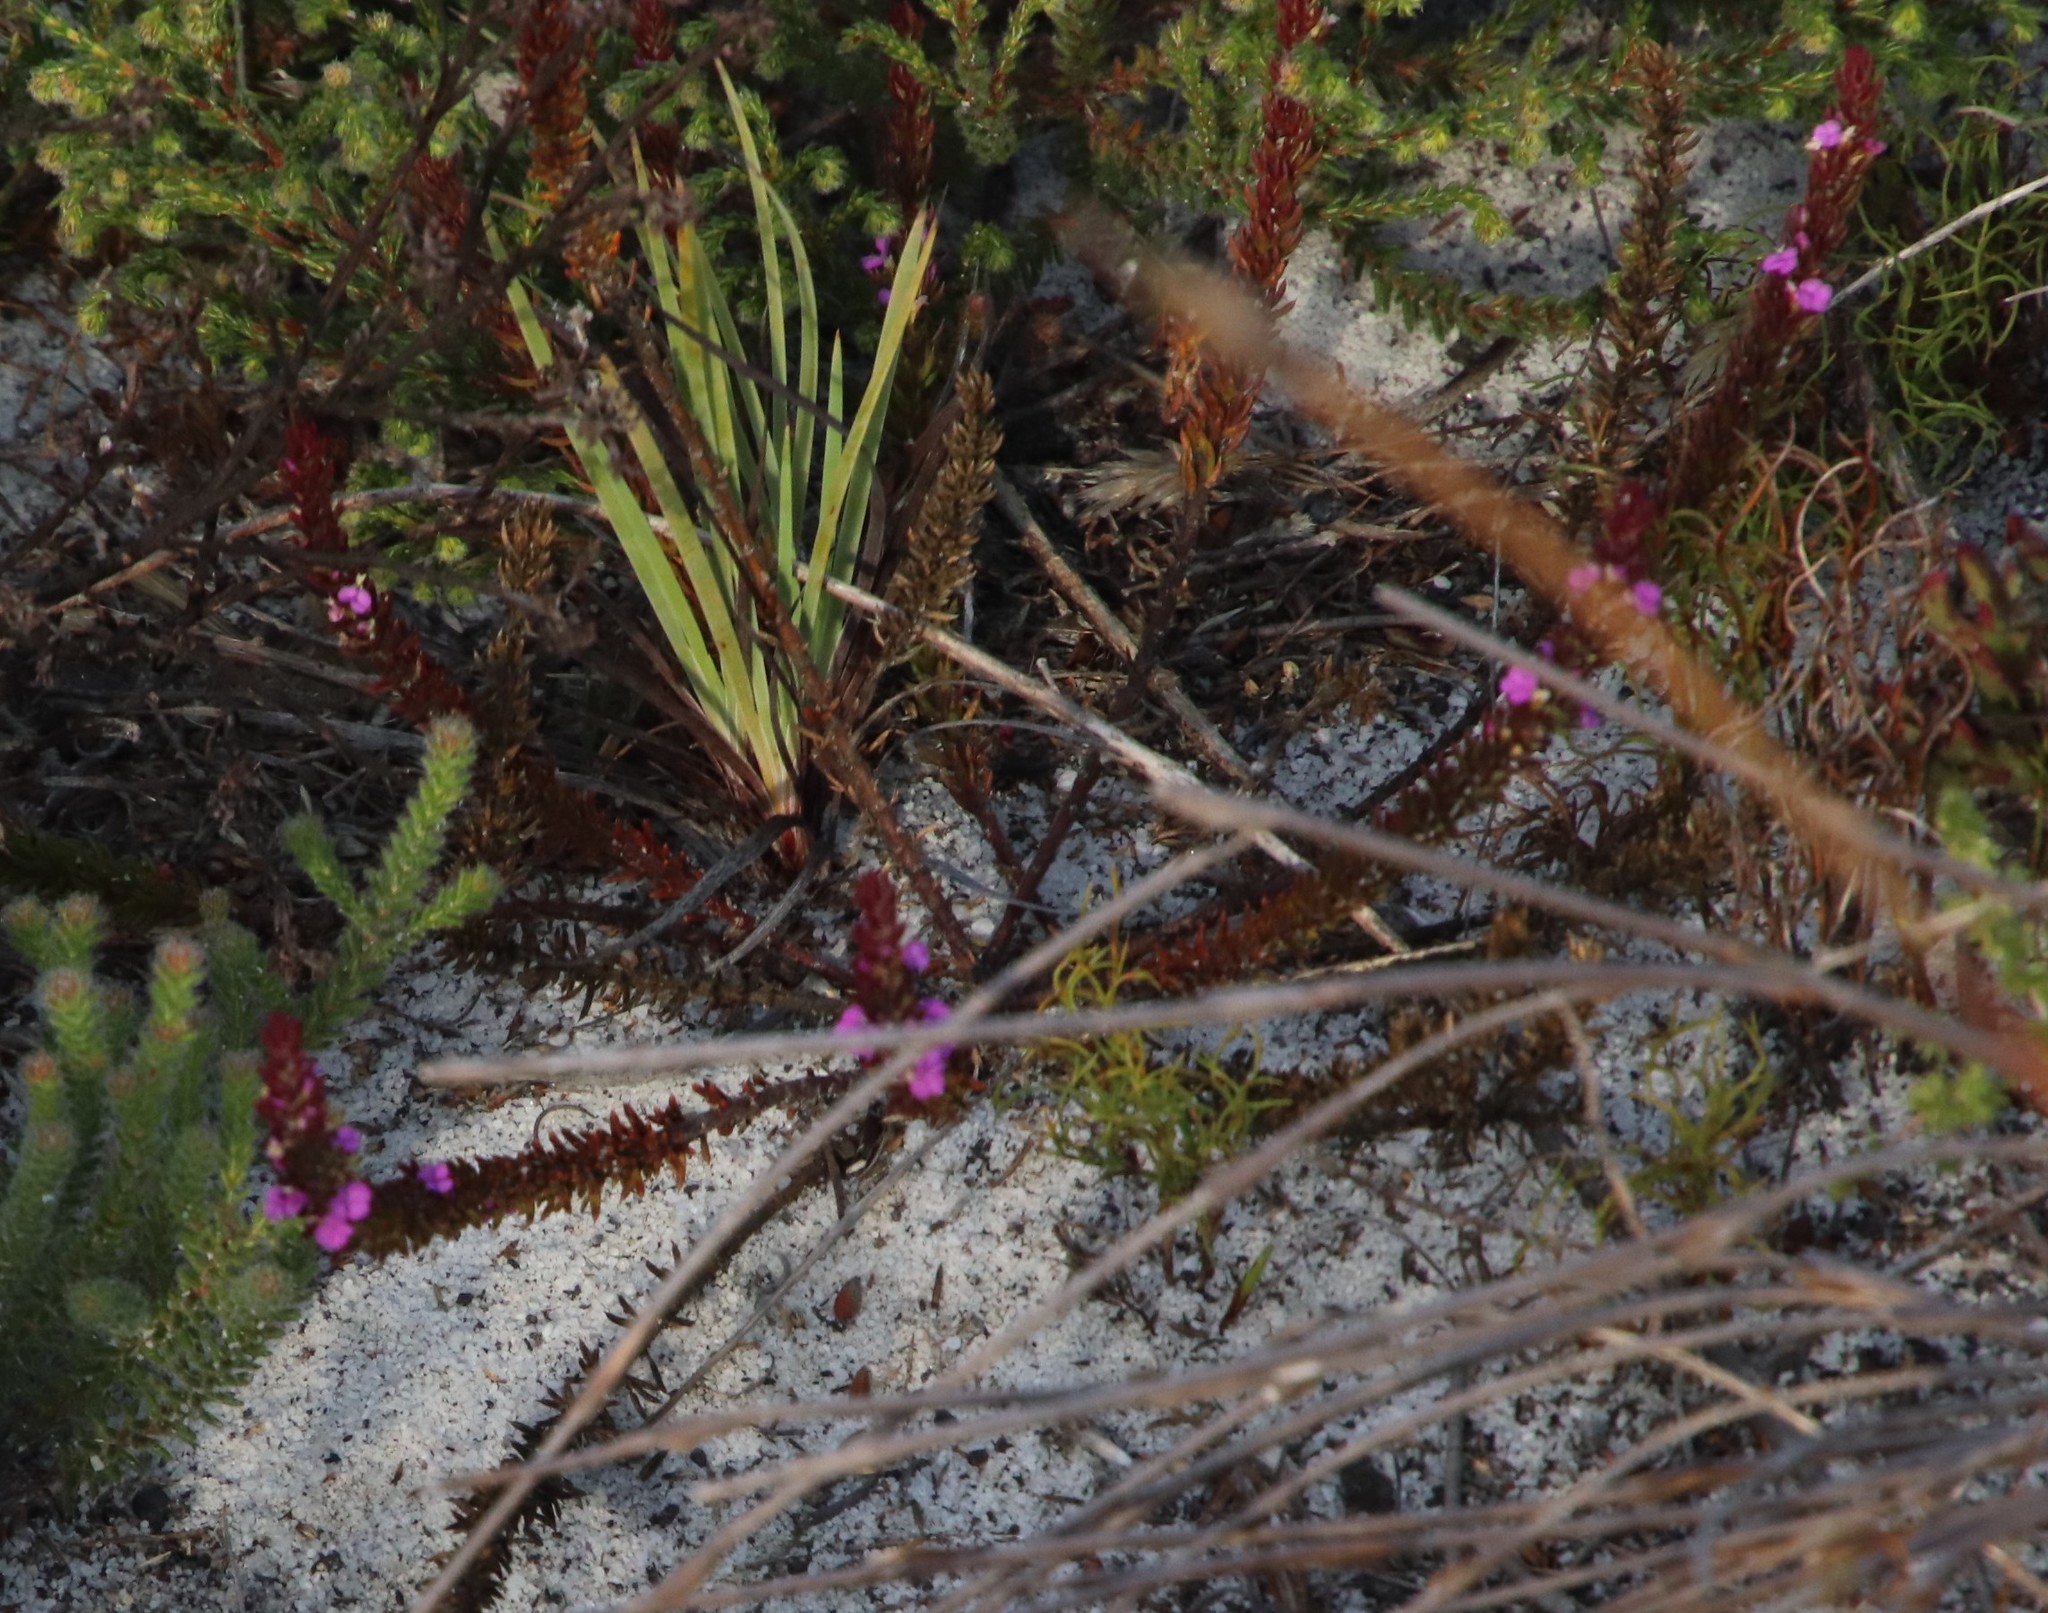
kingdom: Plantae
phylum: Tracheophyta
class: Magnoliopsida
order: Fabales
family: Polygalaceae
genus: Muraltia
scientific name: Muraltia mitior
